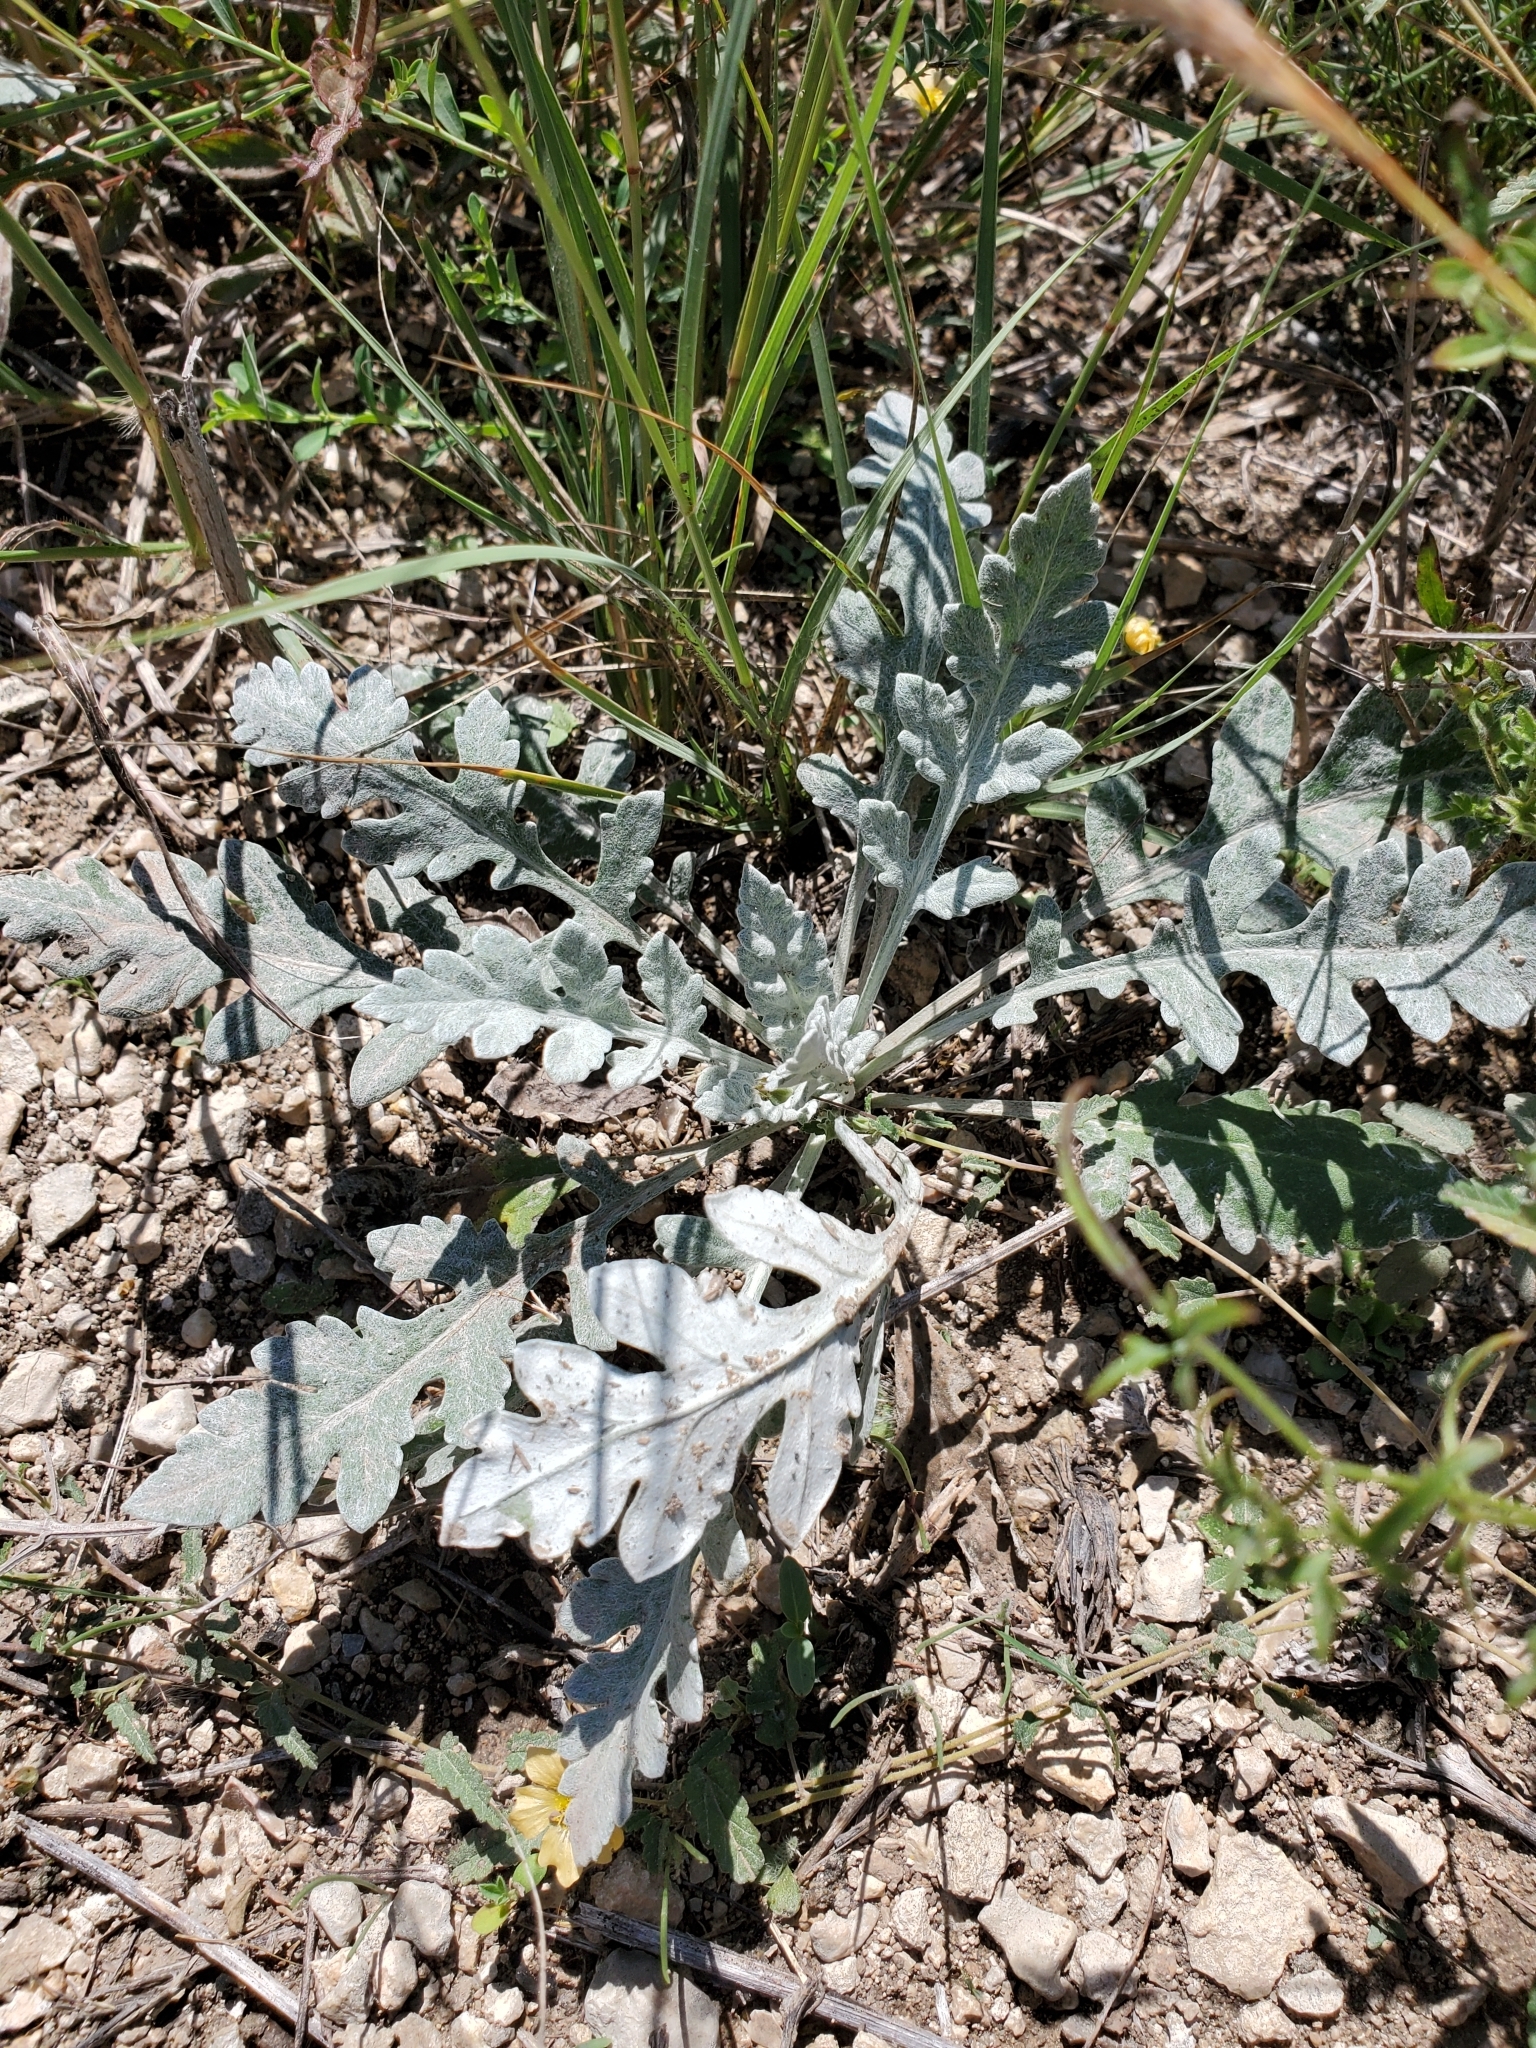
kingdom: Plantae
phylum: Tracheophyta
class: Magnoliopsida
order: Asterales
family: Asteraceae
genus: Parthenium
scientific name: Parthenium confertum
